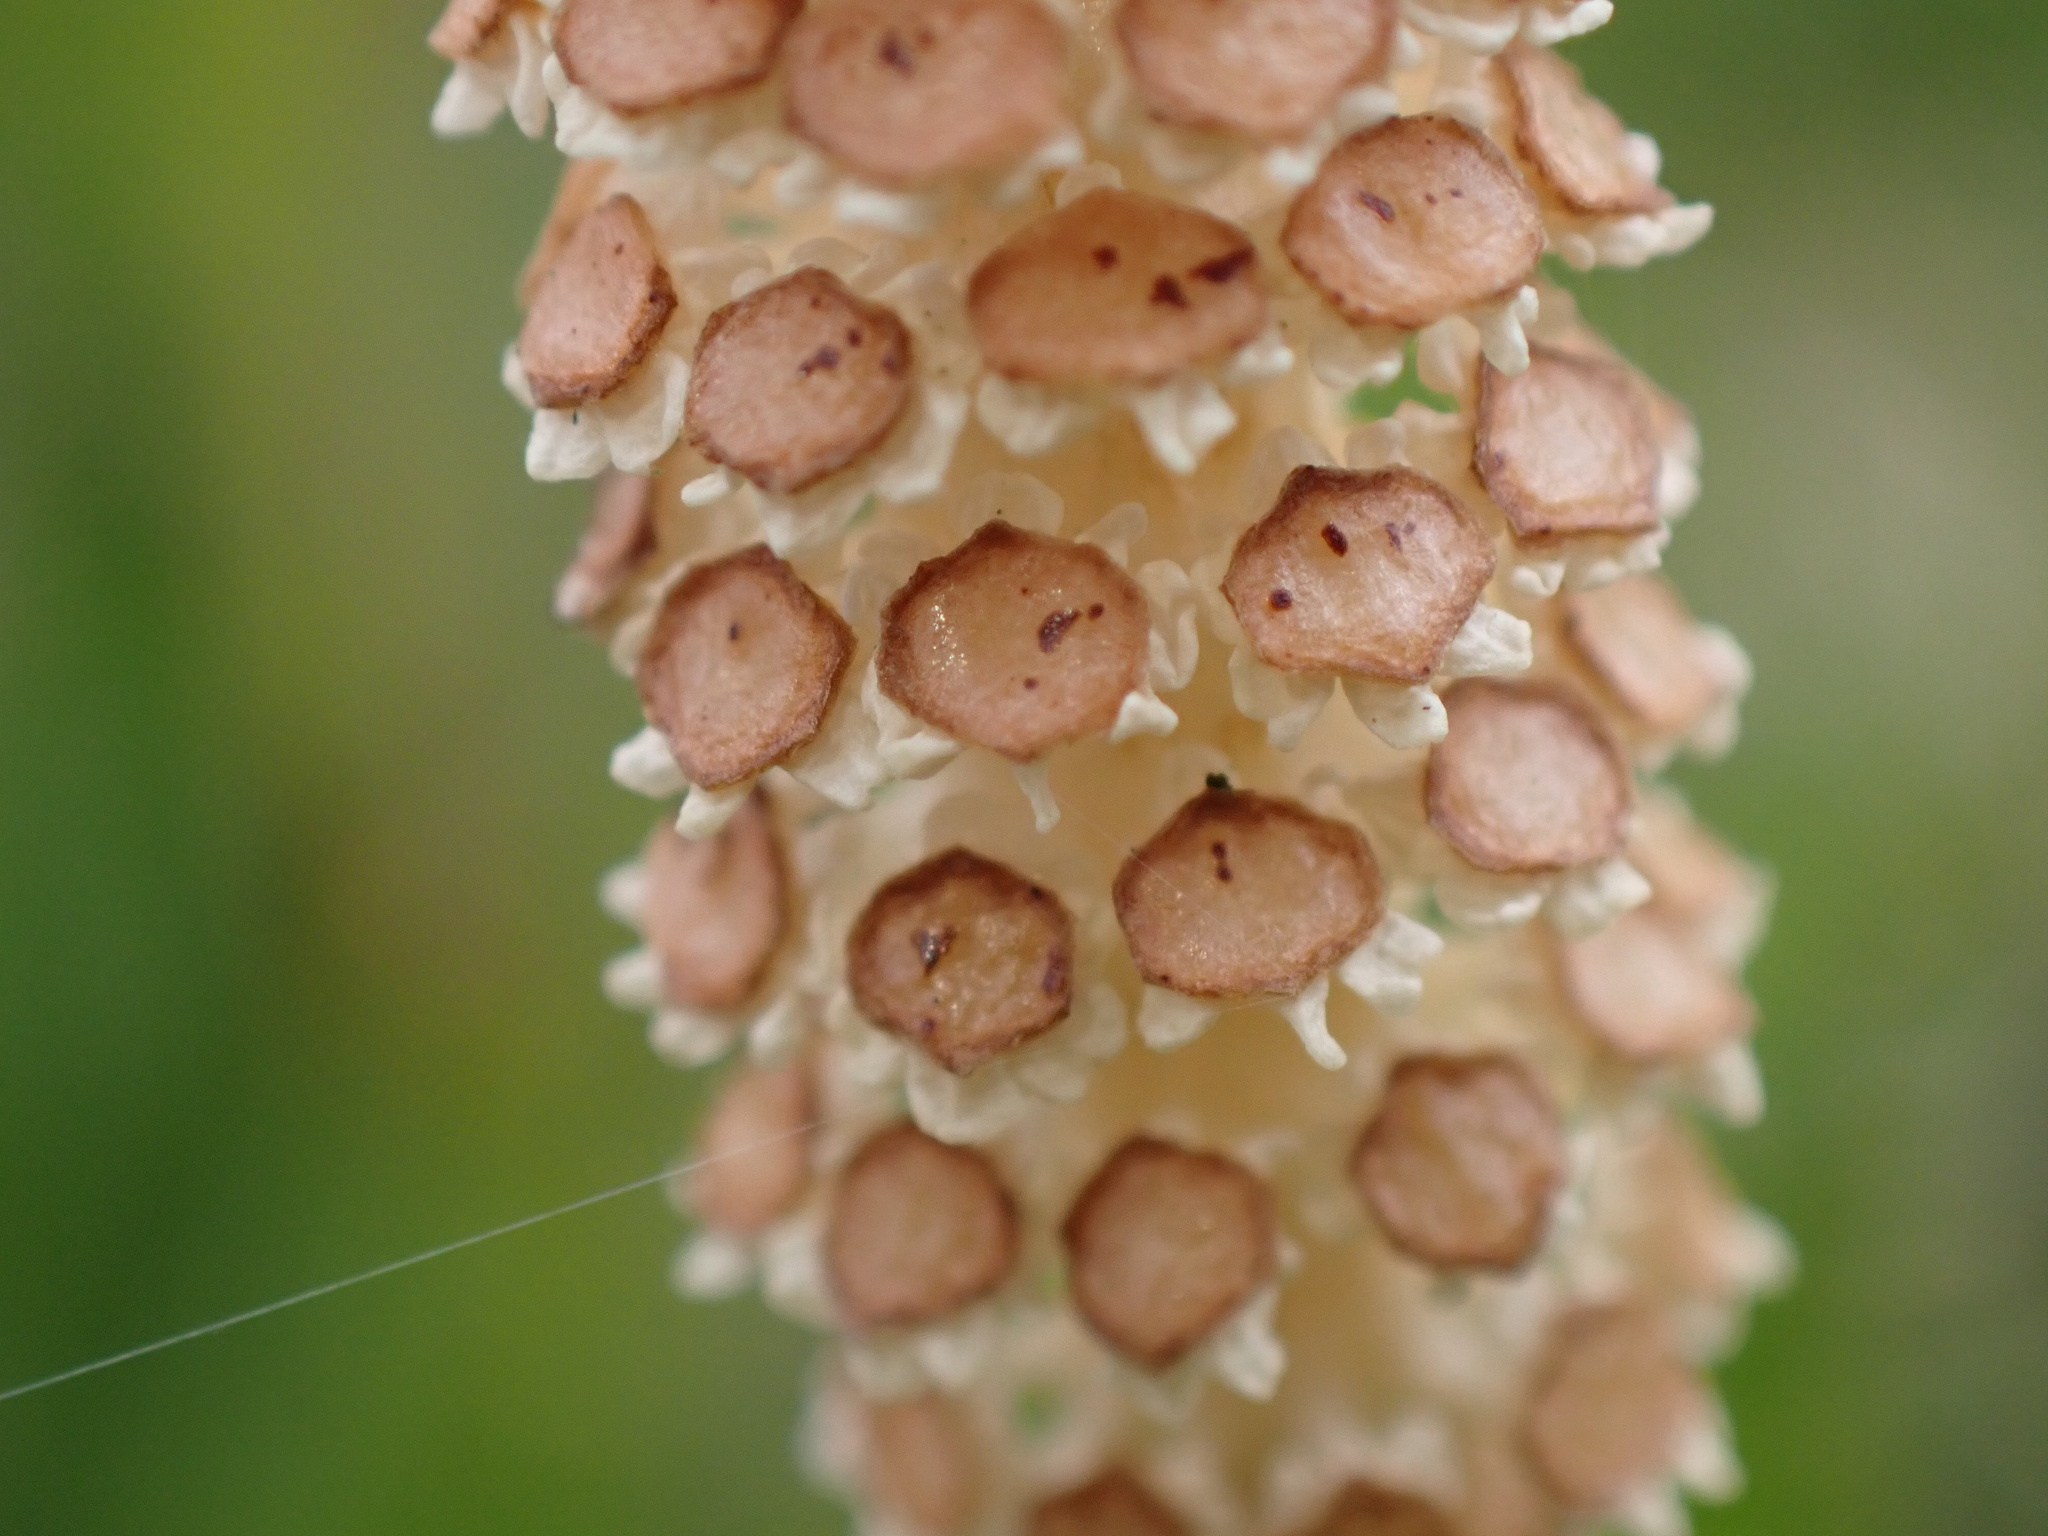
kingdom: Plantae
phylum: Tracheophyta
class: Polypodiopsida
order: Equisetales
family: Equisetaceae
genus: Equisetum
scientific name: Equisetum arvense
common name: Field horsetail
